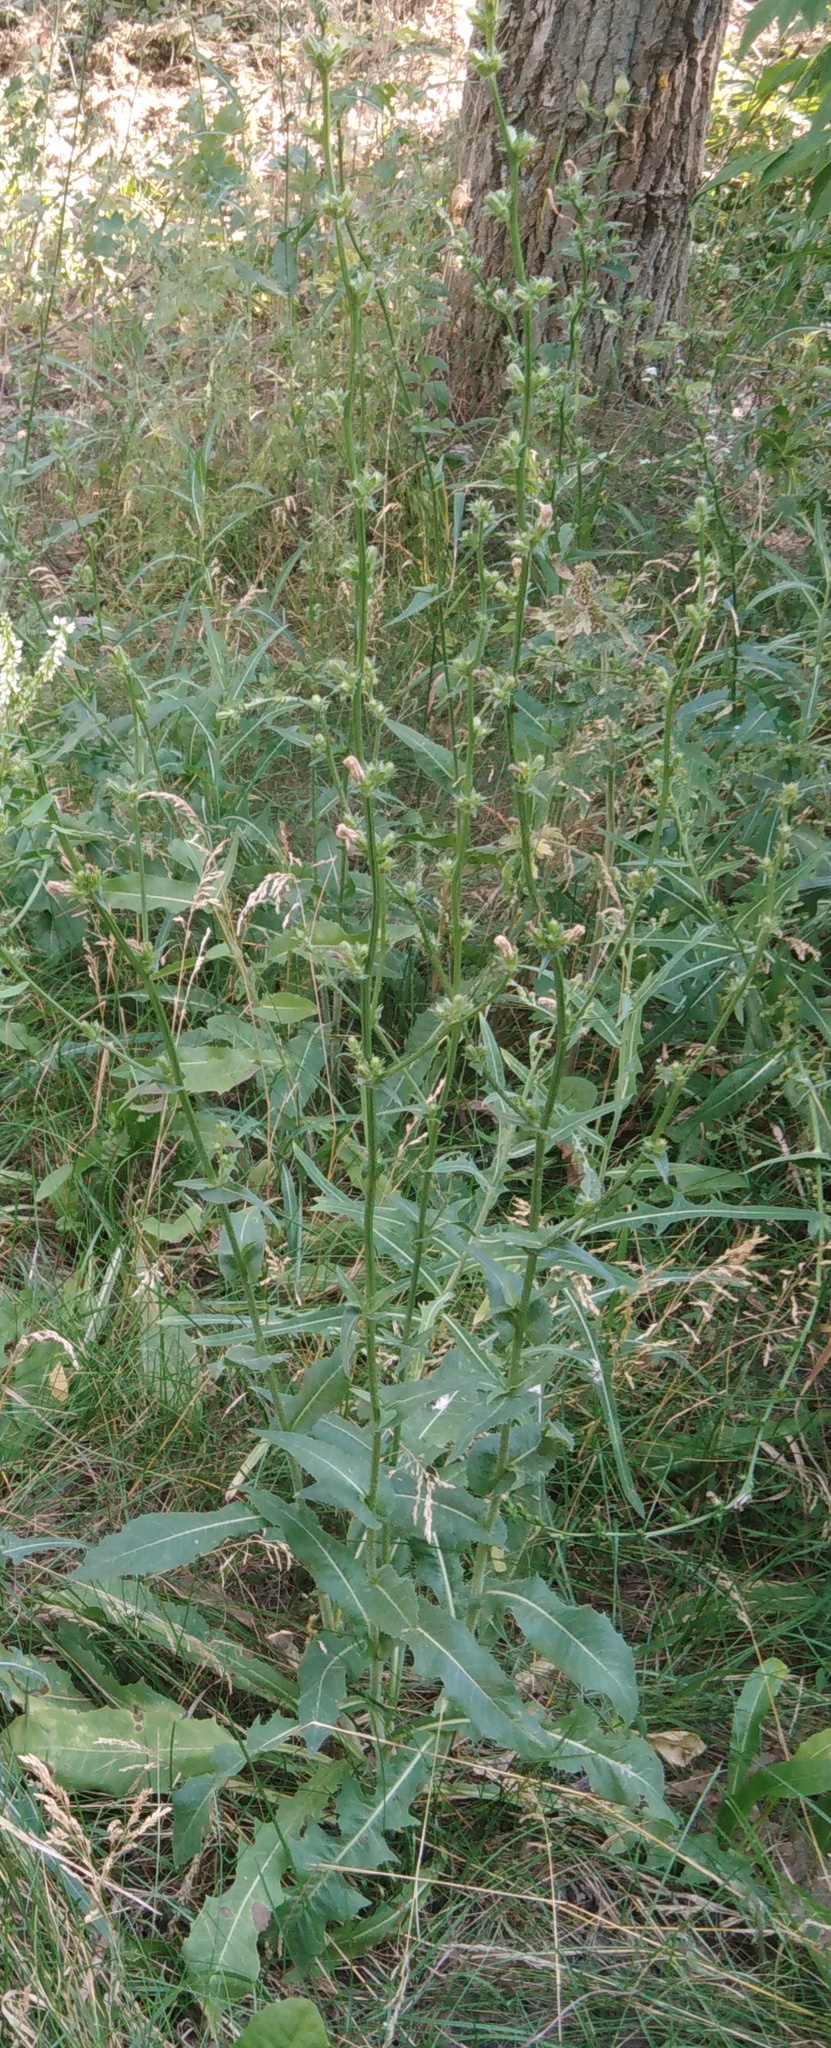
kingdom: Plantae
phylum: Tracheophyta
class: Magnoliopsida
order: Asterales
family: Asteraceae
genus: Cichorium
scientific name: Cichorium intybus
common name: Chicory
